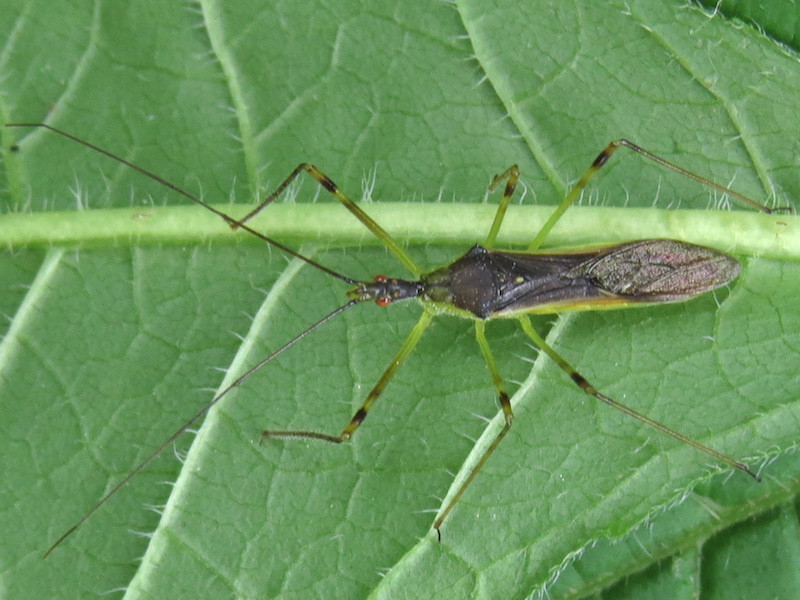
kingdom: Animalia
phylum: Arthropoda
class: Insecta
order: Hemiptera
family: Reduviidae
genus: Zelus
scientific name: Zelus luridus
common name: Pale green assassin bug
